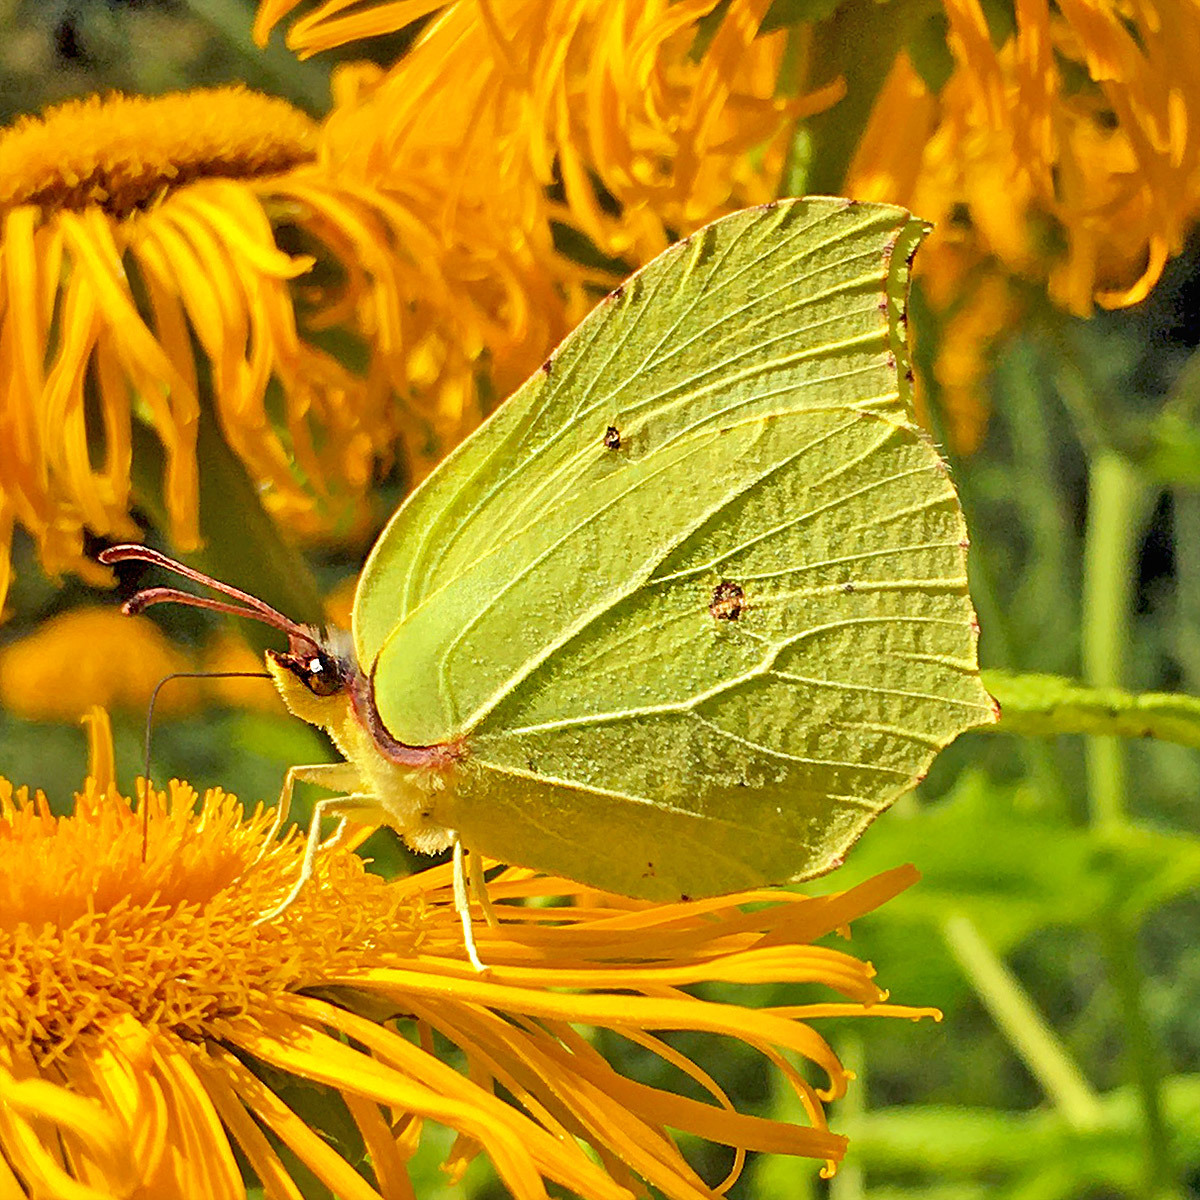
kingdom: Animalia
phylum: Arthropoda
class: Insecta
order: Lepidoptera
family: Pieridae
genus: Gonepteryx
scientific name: Gonepteryx rhamni
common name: Brimstone
